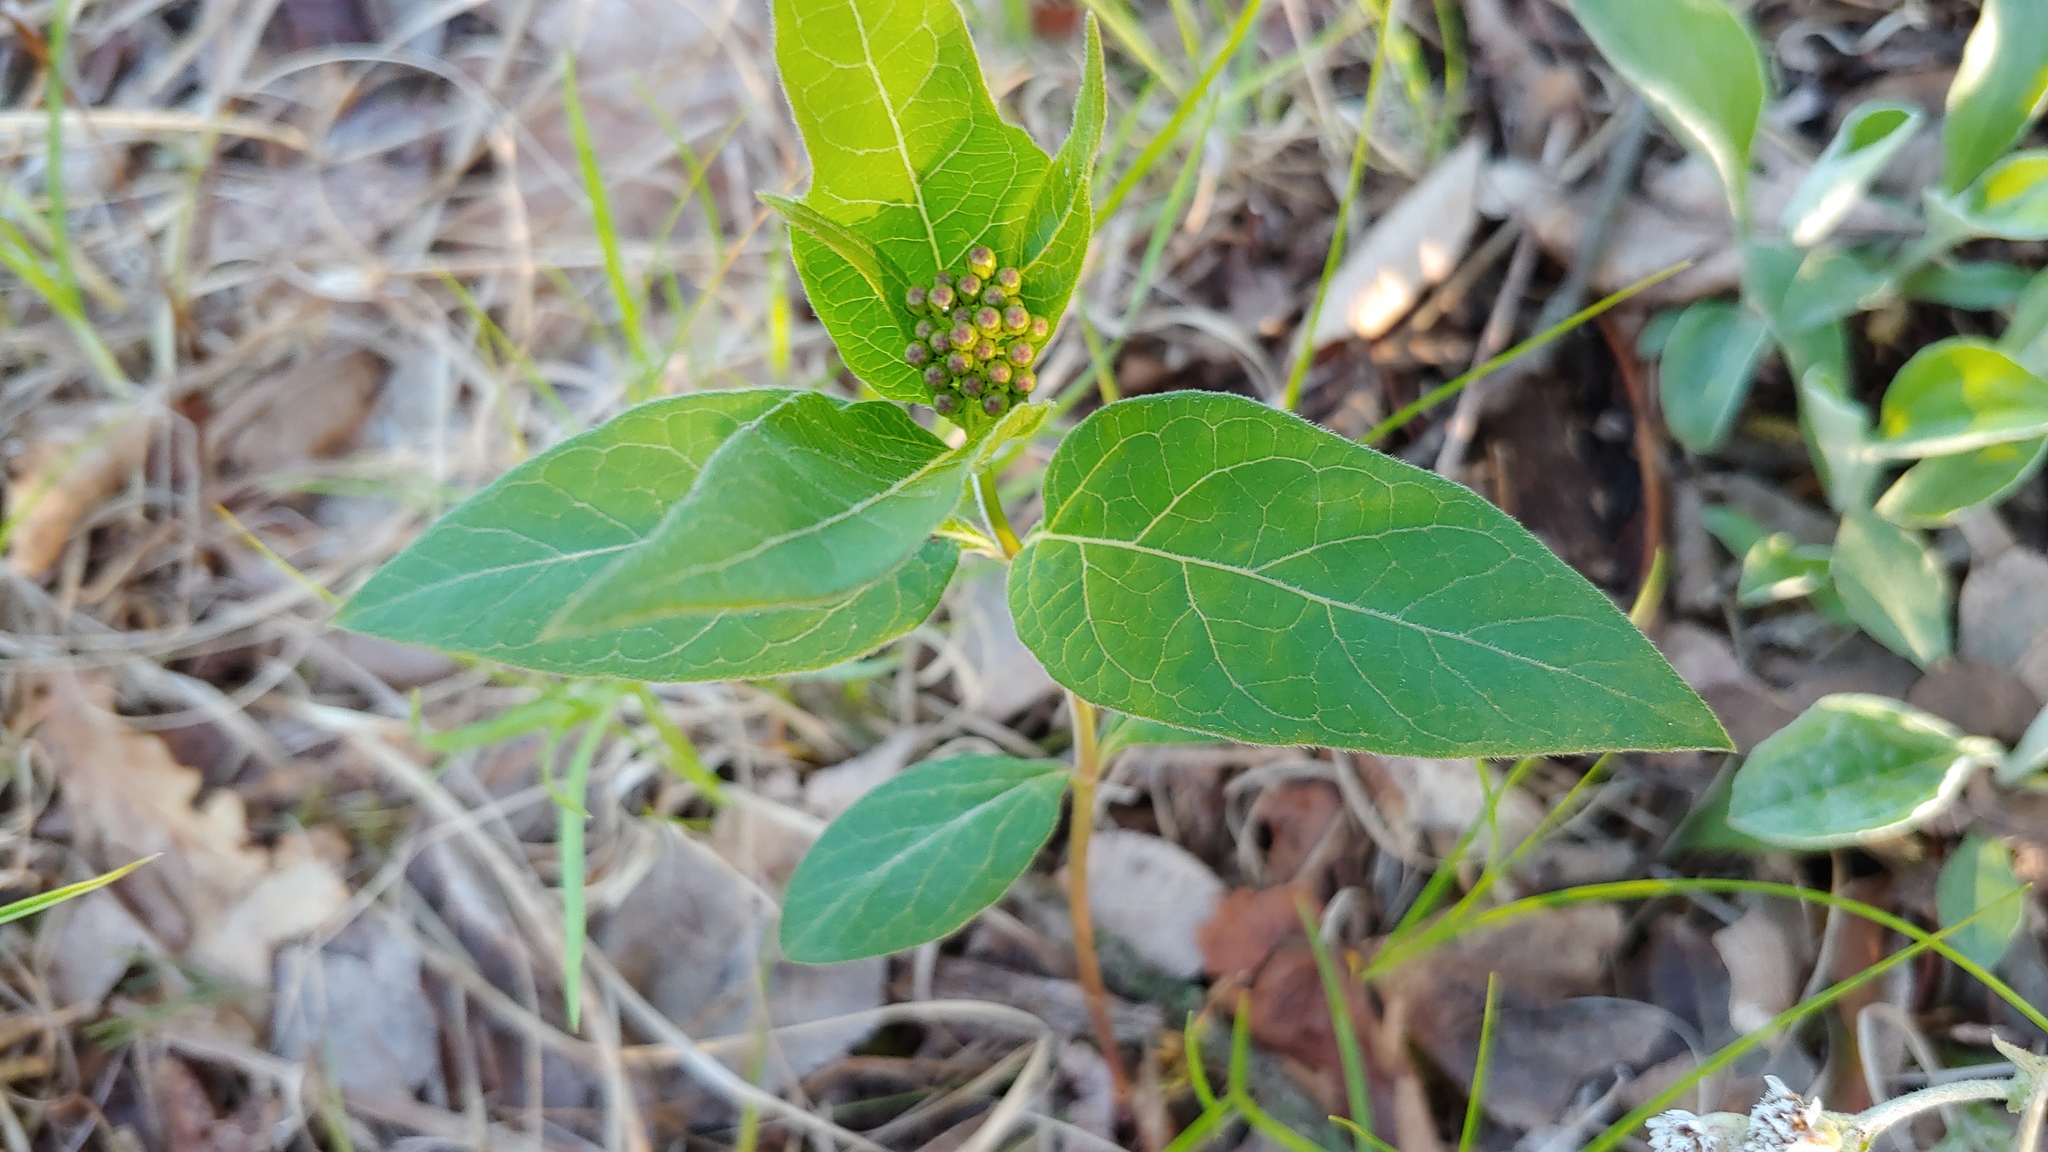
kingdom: Plantae
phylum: Tracheophyta
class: Magnoliopsida
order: Gentianales
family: Apocynaceae
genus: Asclepias
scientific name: Asclepias quadrifolia
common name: Whorled milkweed
